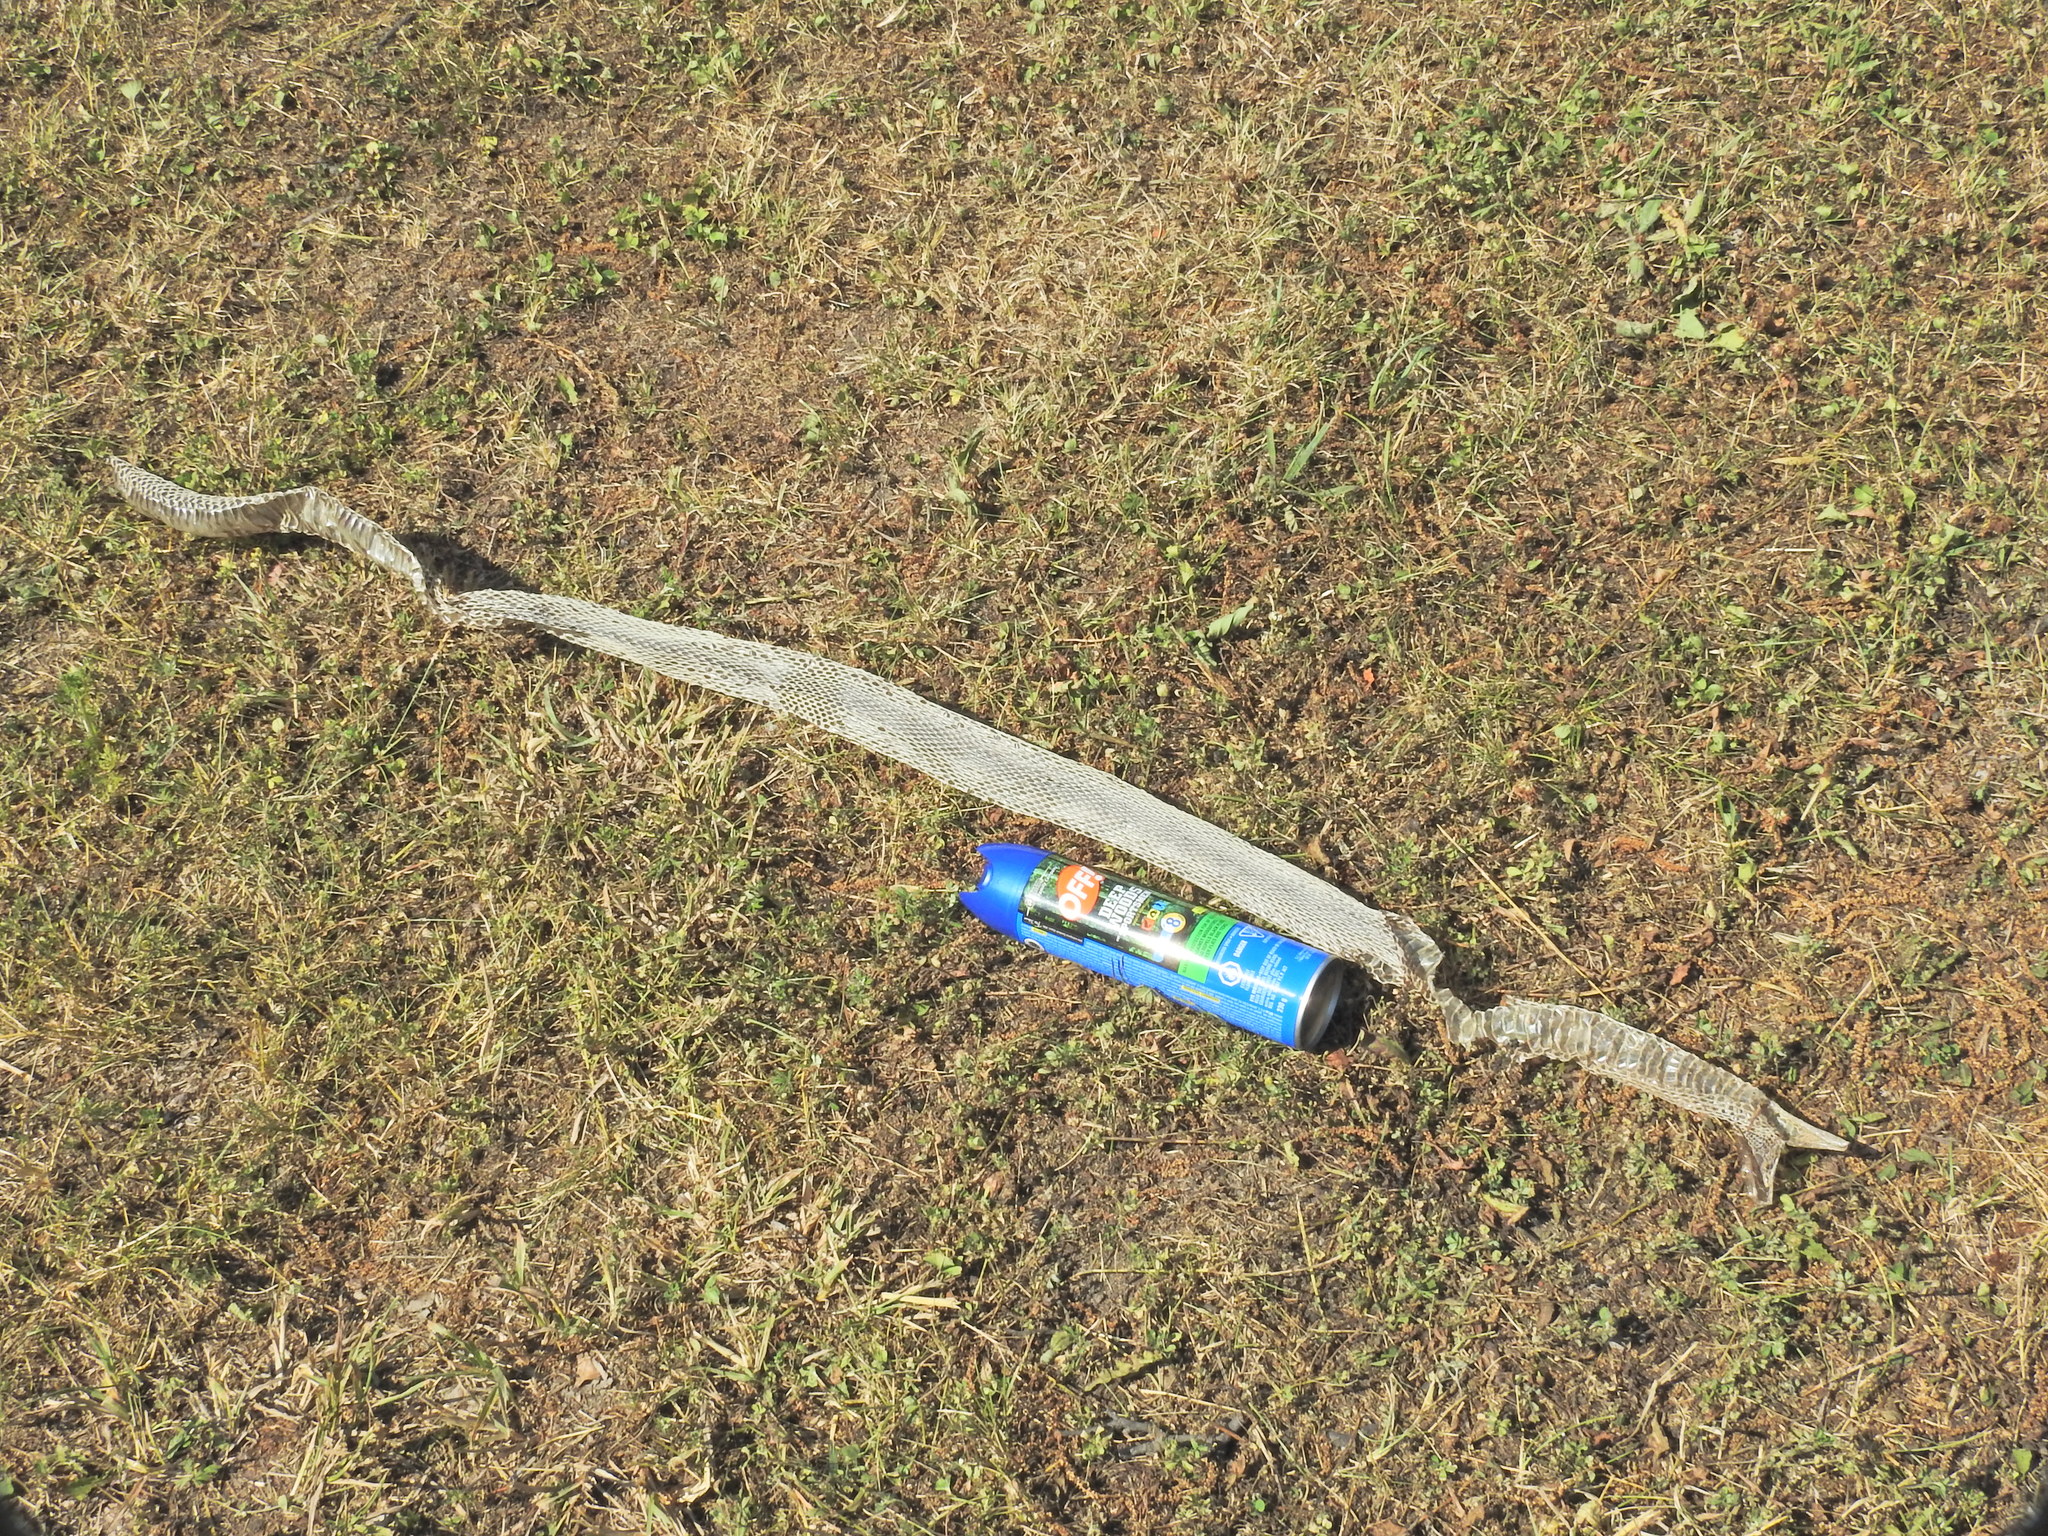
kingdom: Animalia
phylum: Chordata
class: Squamata
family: Colubridae
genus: Pantherophis
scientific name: Pantherophis spiloides
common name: Gray rat snake
